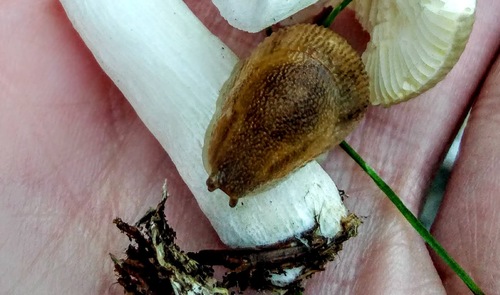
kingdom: Fungi
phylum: Basidiomycota
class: Agaricomycetes
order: Russulales
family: Russulaceae
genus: Russula
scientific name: Russula
